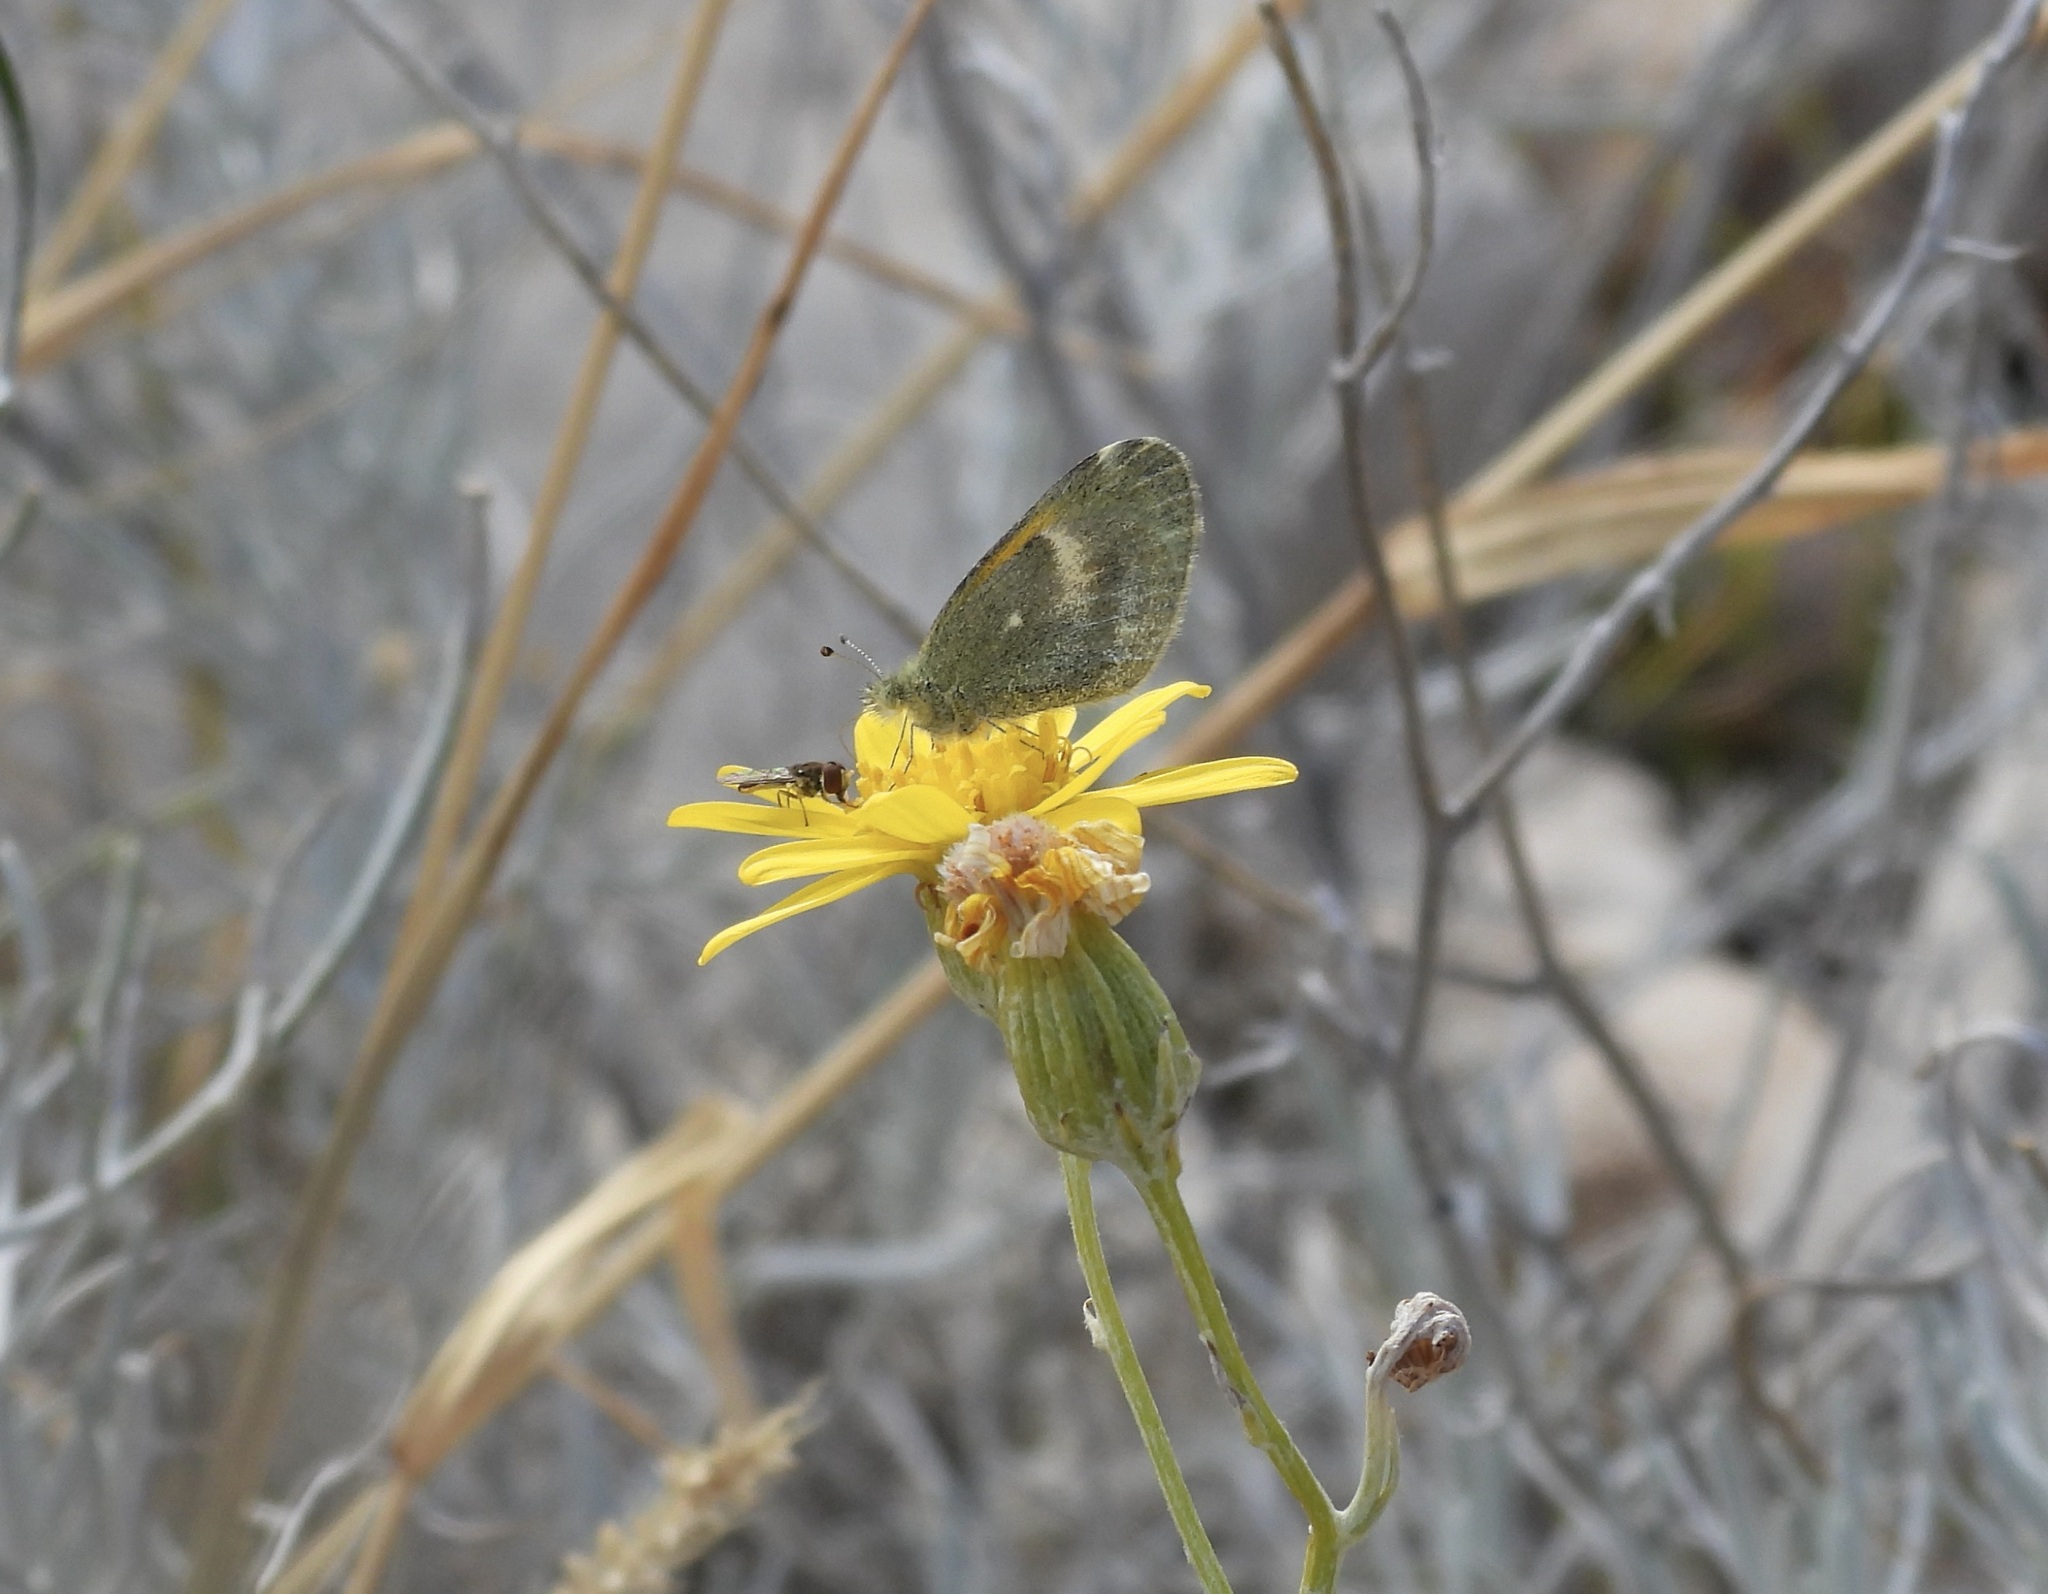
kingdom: Animalia
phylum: Arthropoda
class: Insecta
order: Lepidoptera
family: Pieridae
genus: Nathalis
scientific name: Nathalis iole
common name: Dainty sulphur
